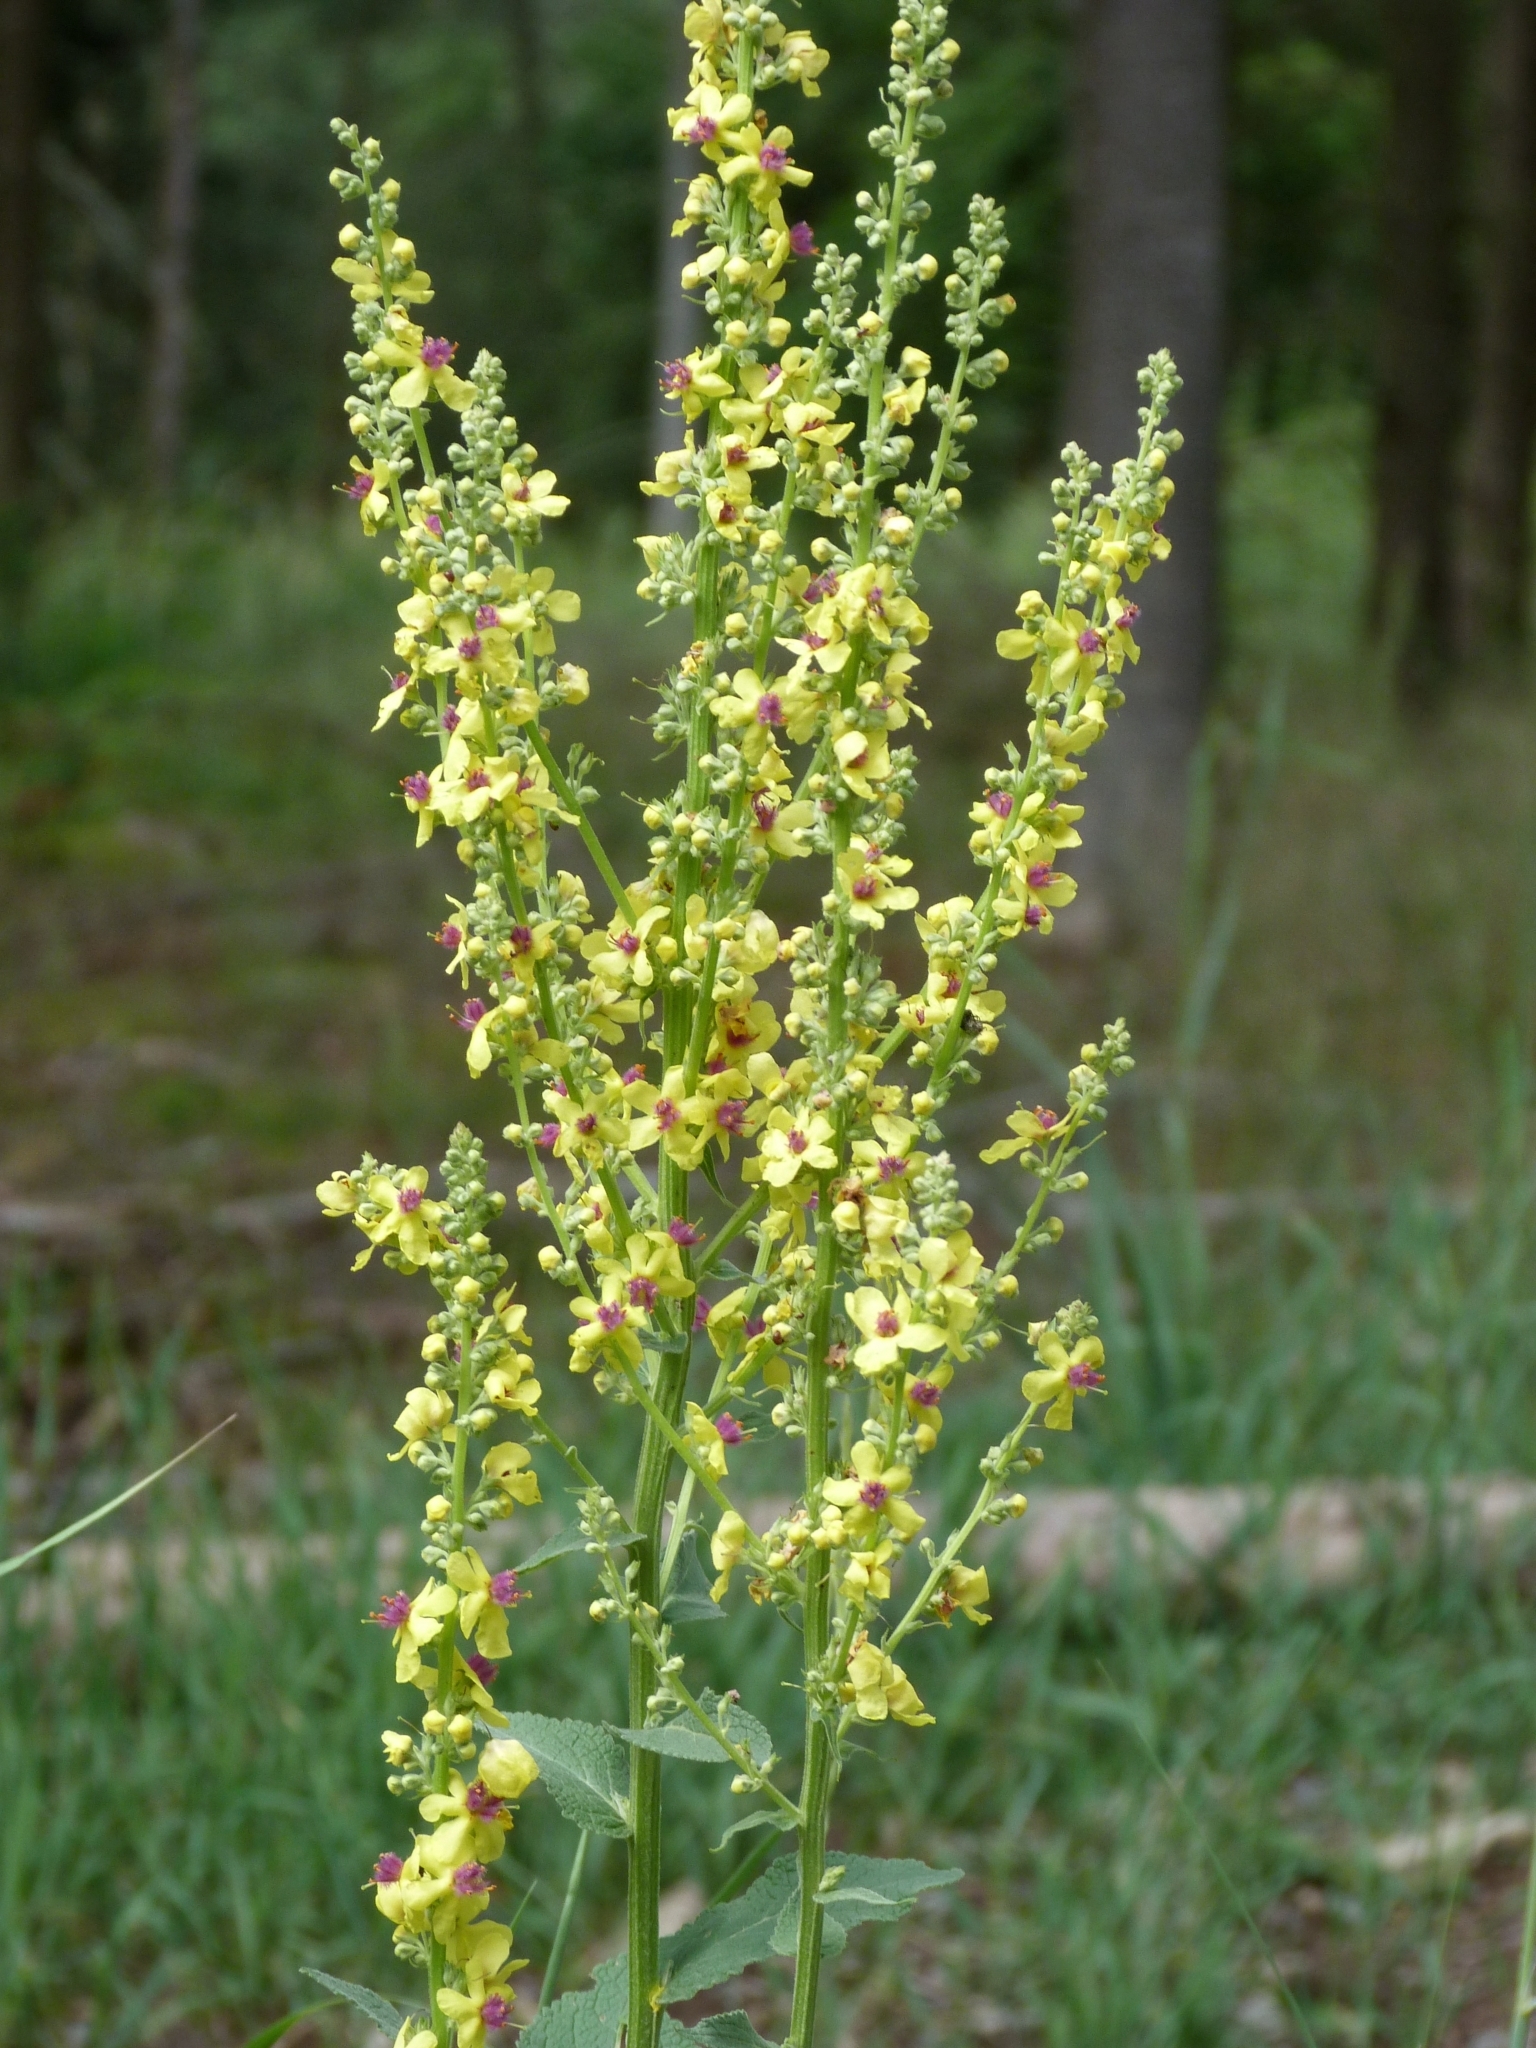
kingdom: Plantae
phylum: Tracheophyta
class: Magnoliopsida
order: Lamiales
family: Scrophulariaceae
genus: Verbascum
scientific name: Verbascum chaixii
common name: Nettle-leaved mullein
